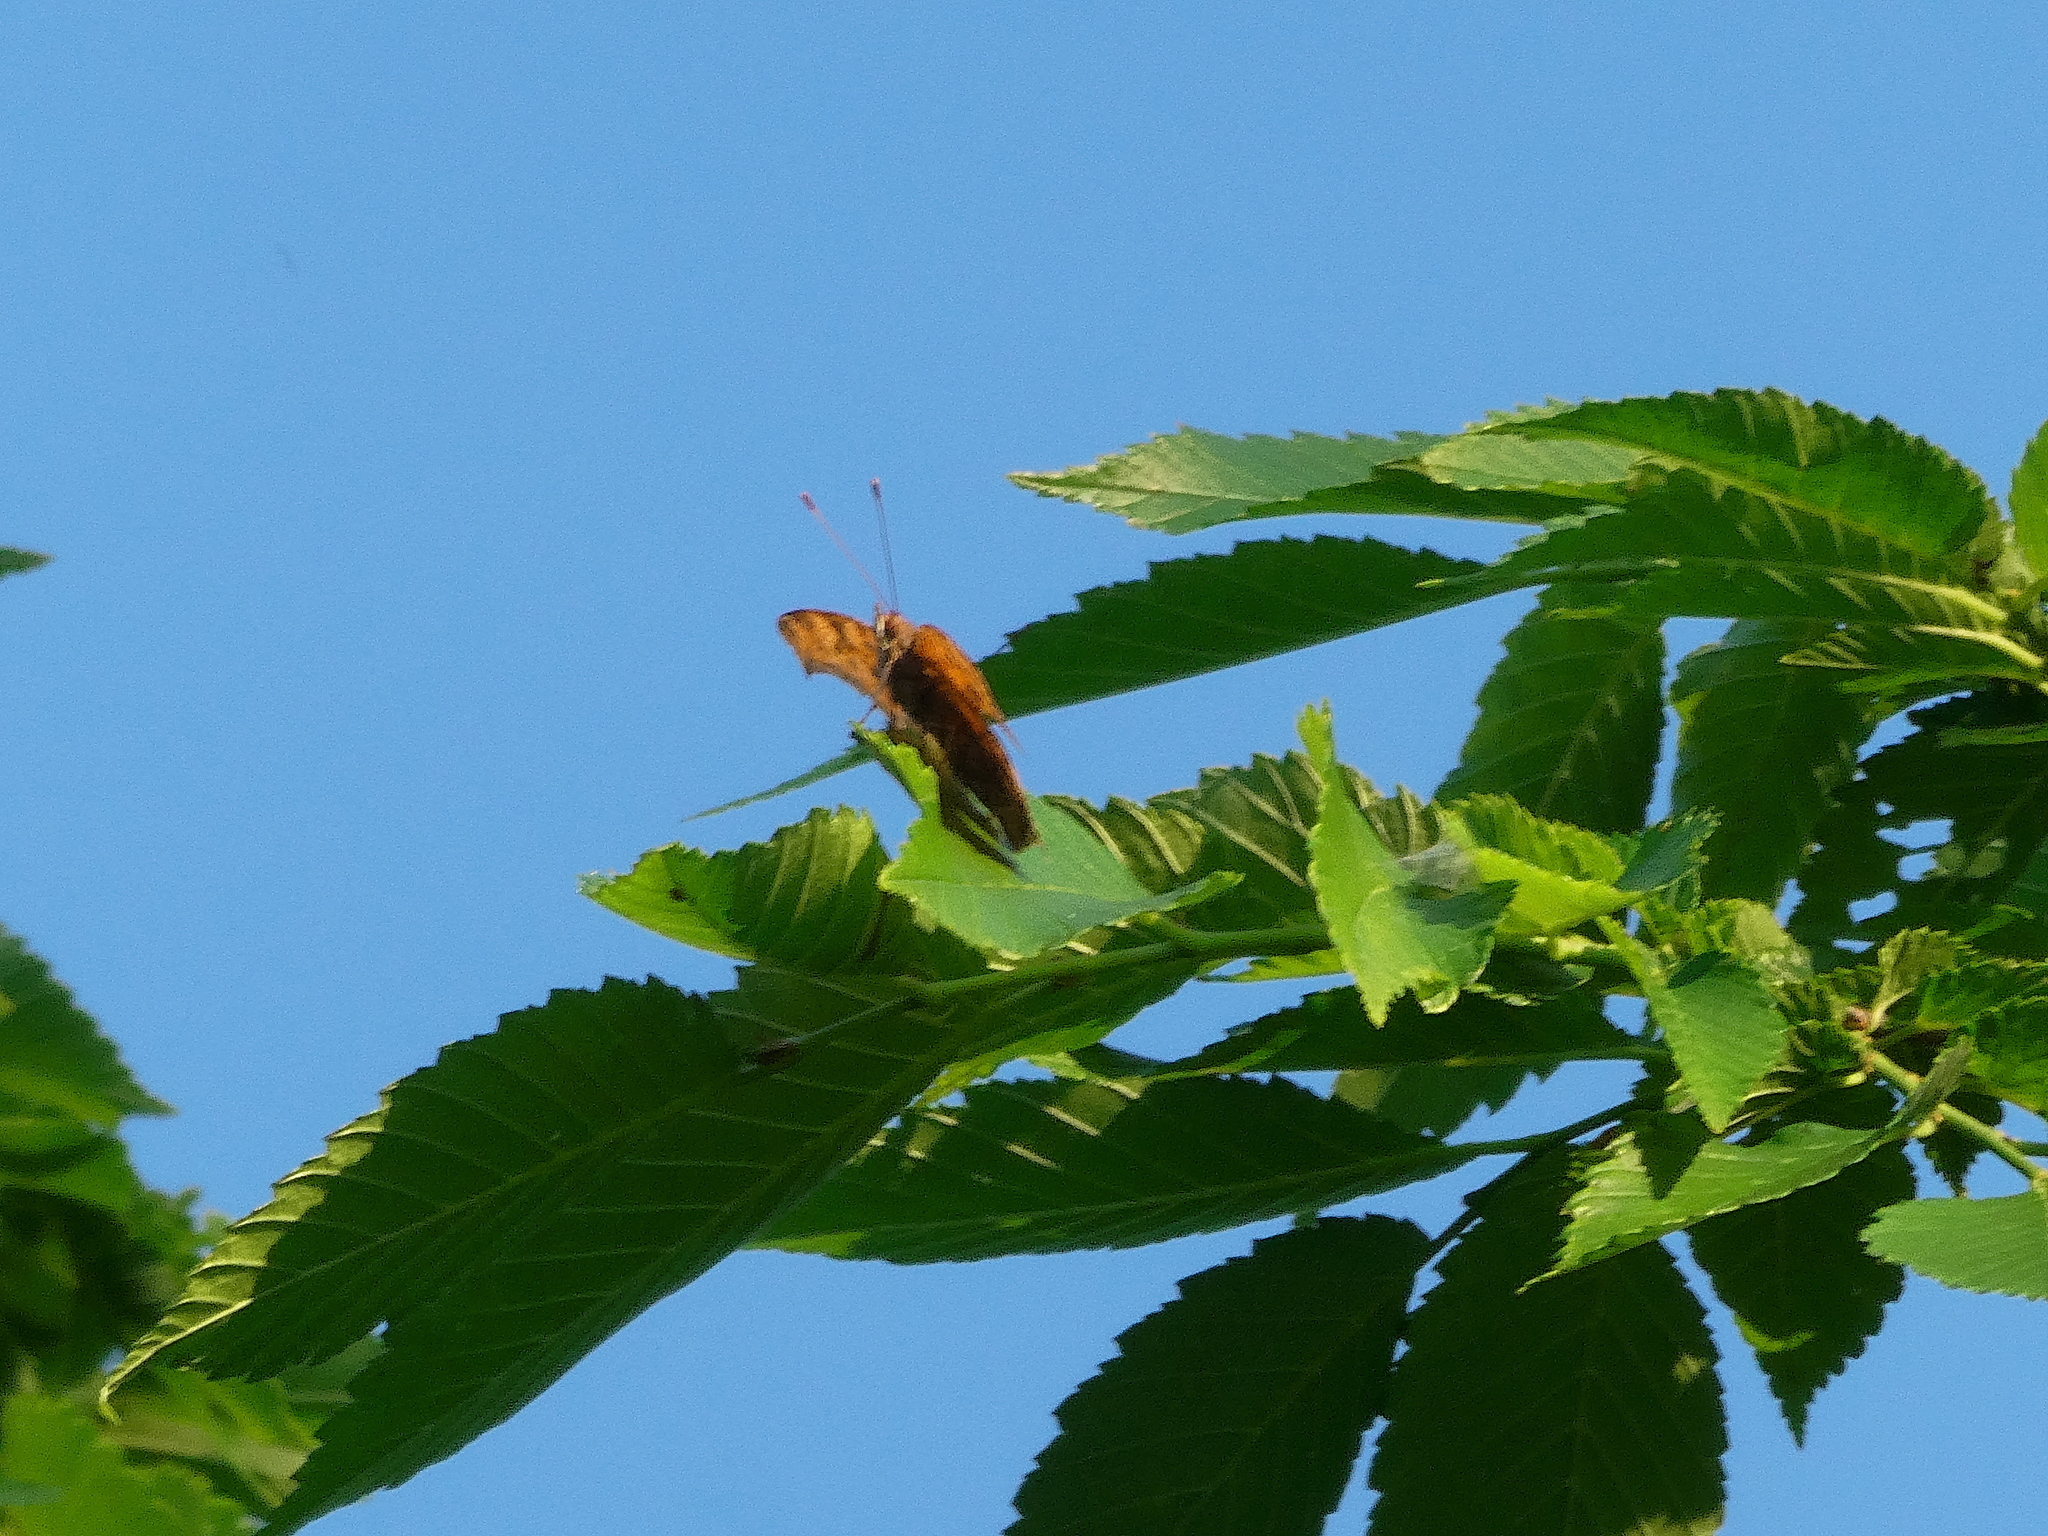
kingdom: Animalia
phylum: Arthropoda
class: Insecta
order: Lepidoptera
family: Nymphalidae
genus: Polygonia
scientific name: Polygonia interrogationis
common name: Question mark
